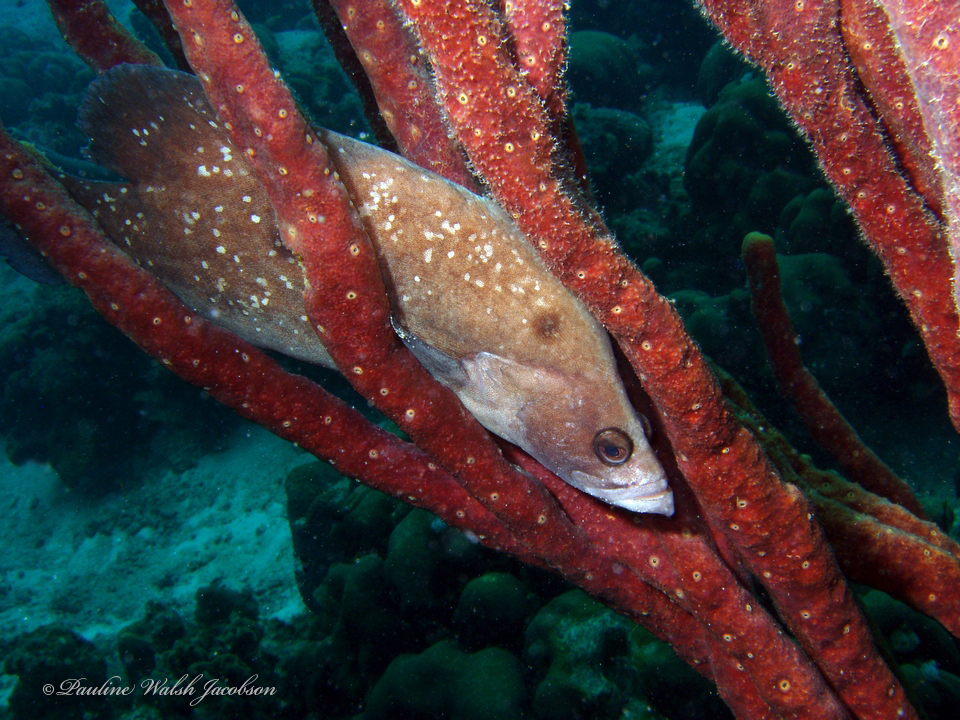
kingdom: Animalia
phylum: Chordata
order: Perciformes
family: Serranidae
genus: Rypticus
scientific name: Rypticus saponaceus
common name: Soapfish
